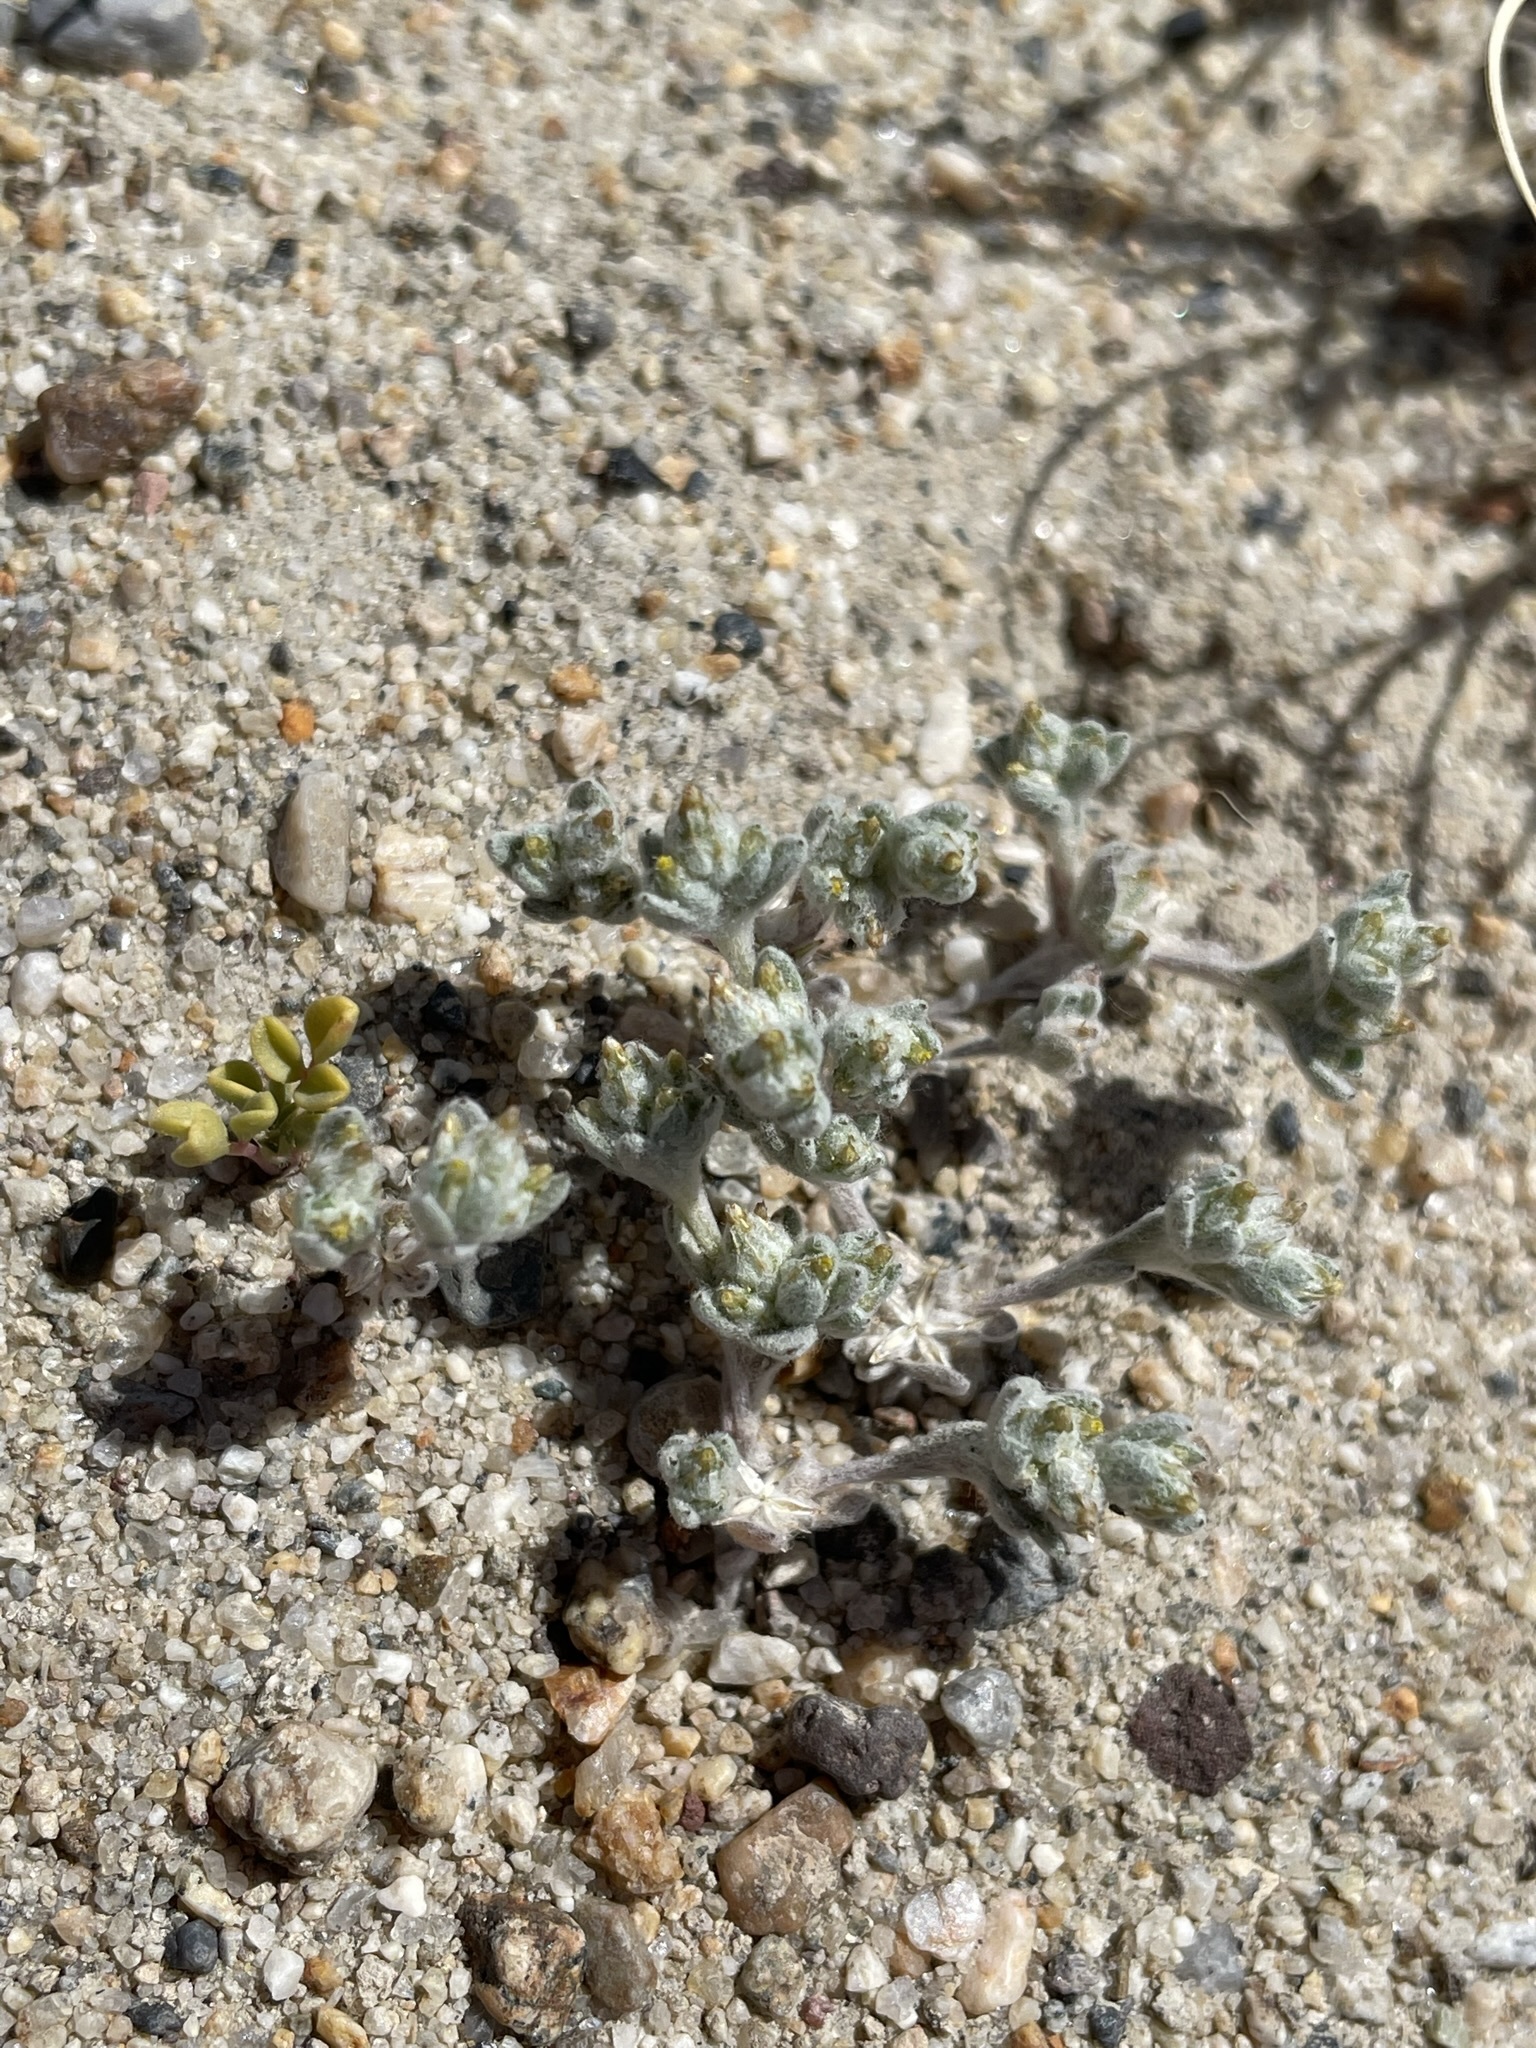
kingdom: Plantae
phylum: Tracheophyta
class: Magnoliopsida
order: Asterales
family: Asteraceae
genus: Logfia
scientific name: Logfia depressa
